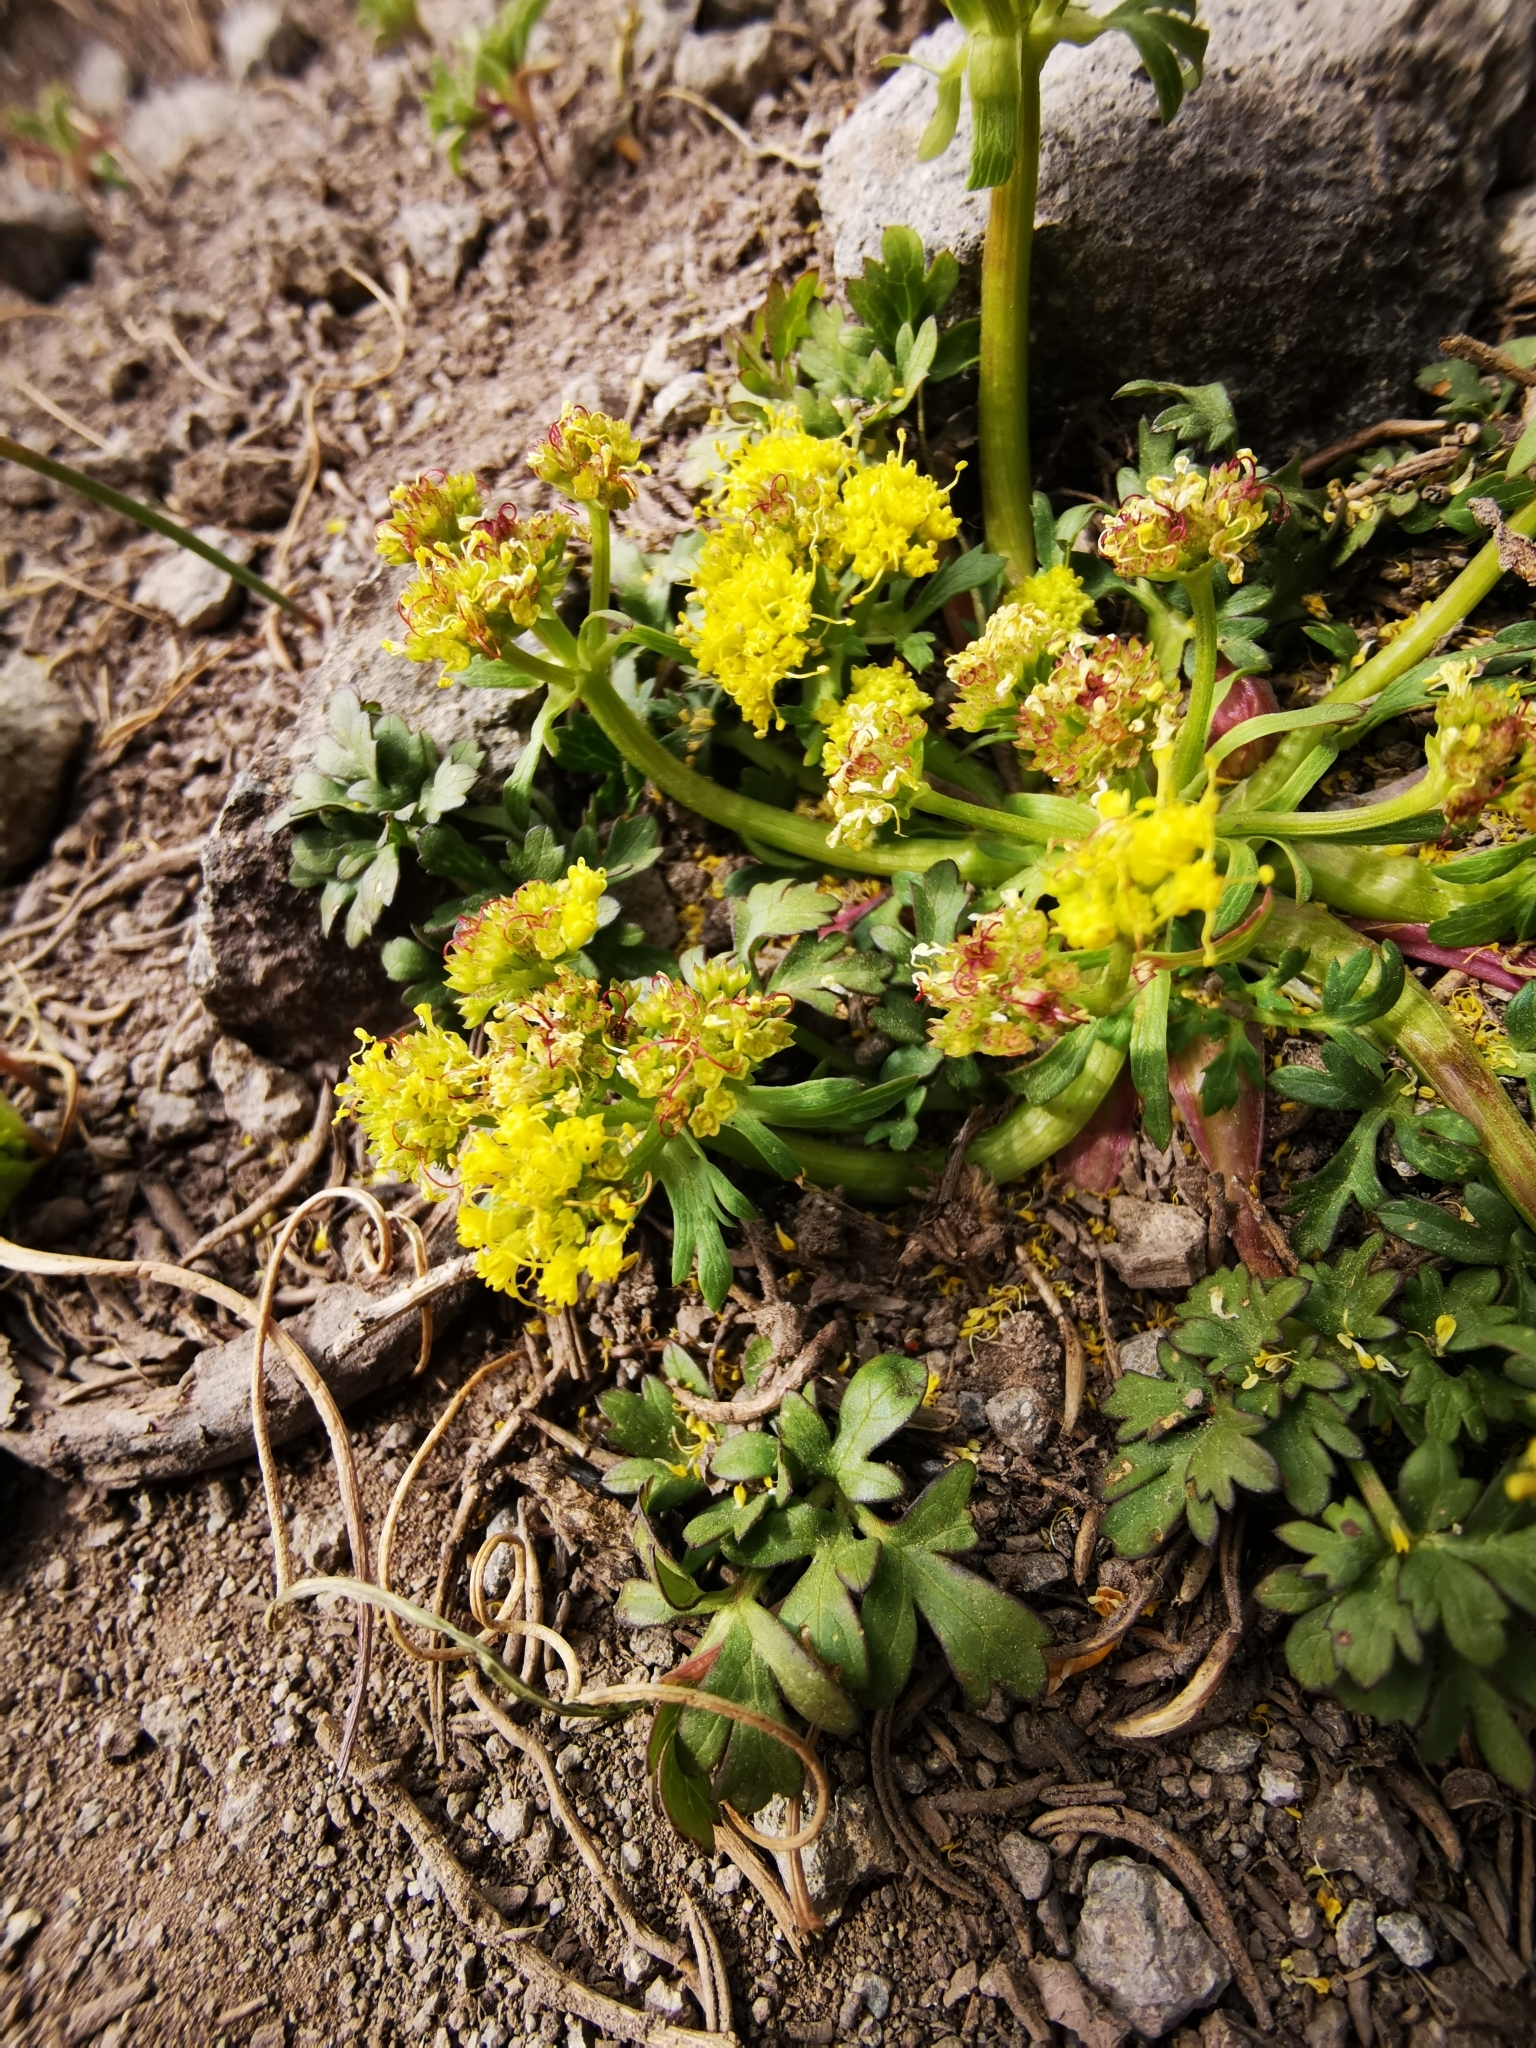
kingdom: Plantae
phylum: Tracheophyta
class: Magnoliopsida
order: Apiales
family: Apiaceae
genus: Sanicula
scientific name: Sanicula graveolens
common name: Sierra sanicle
